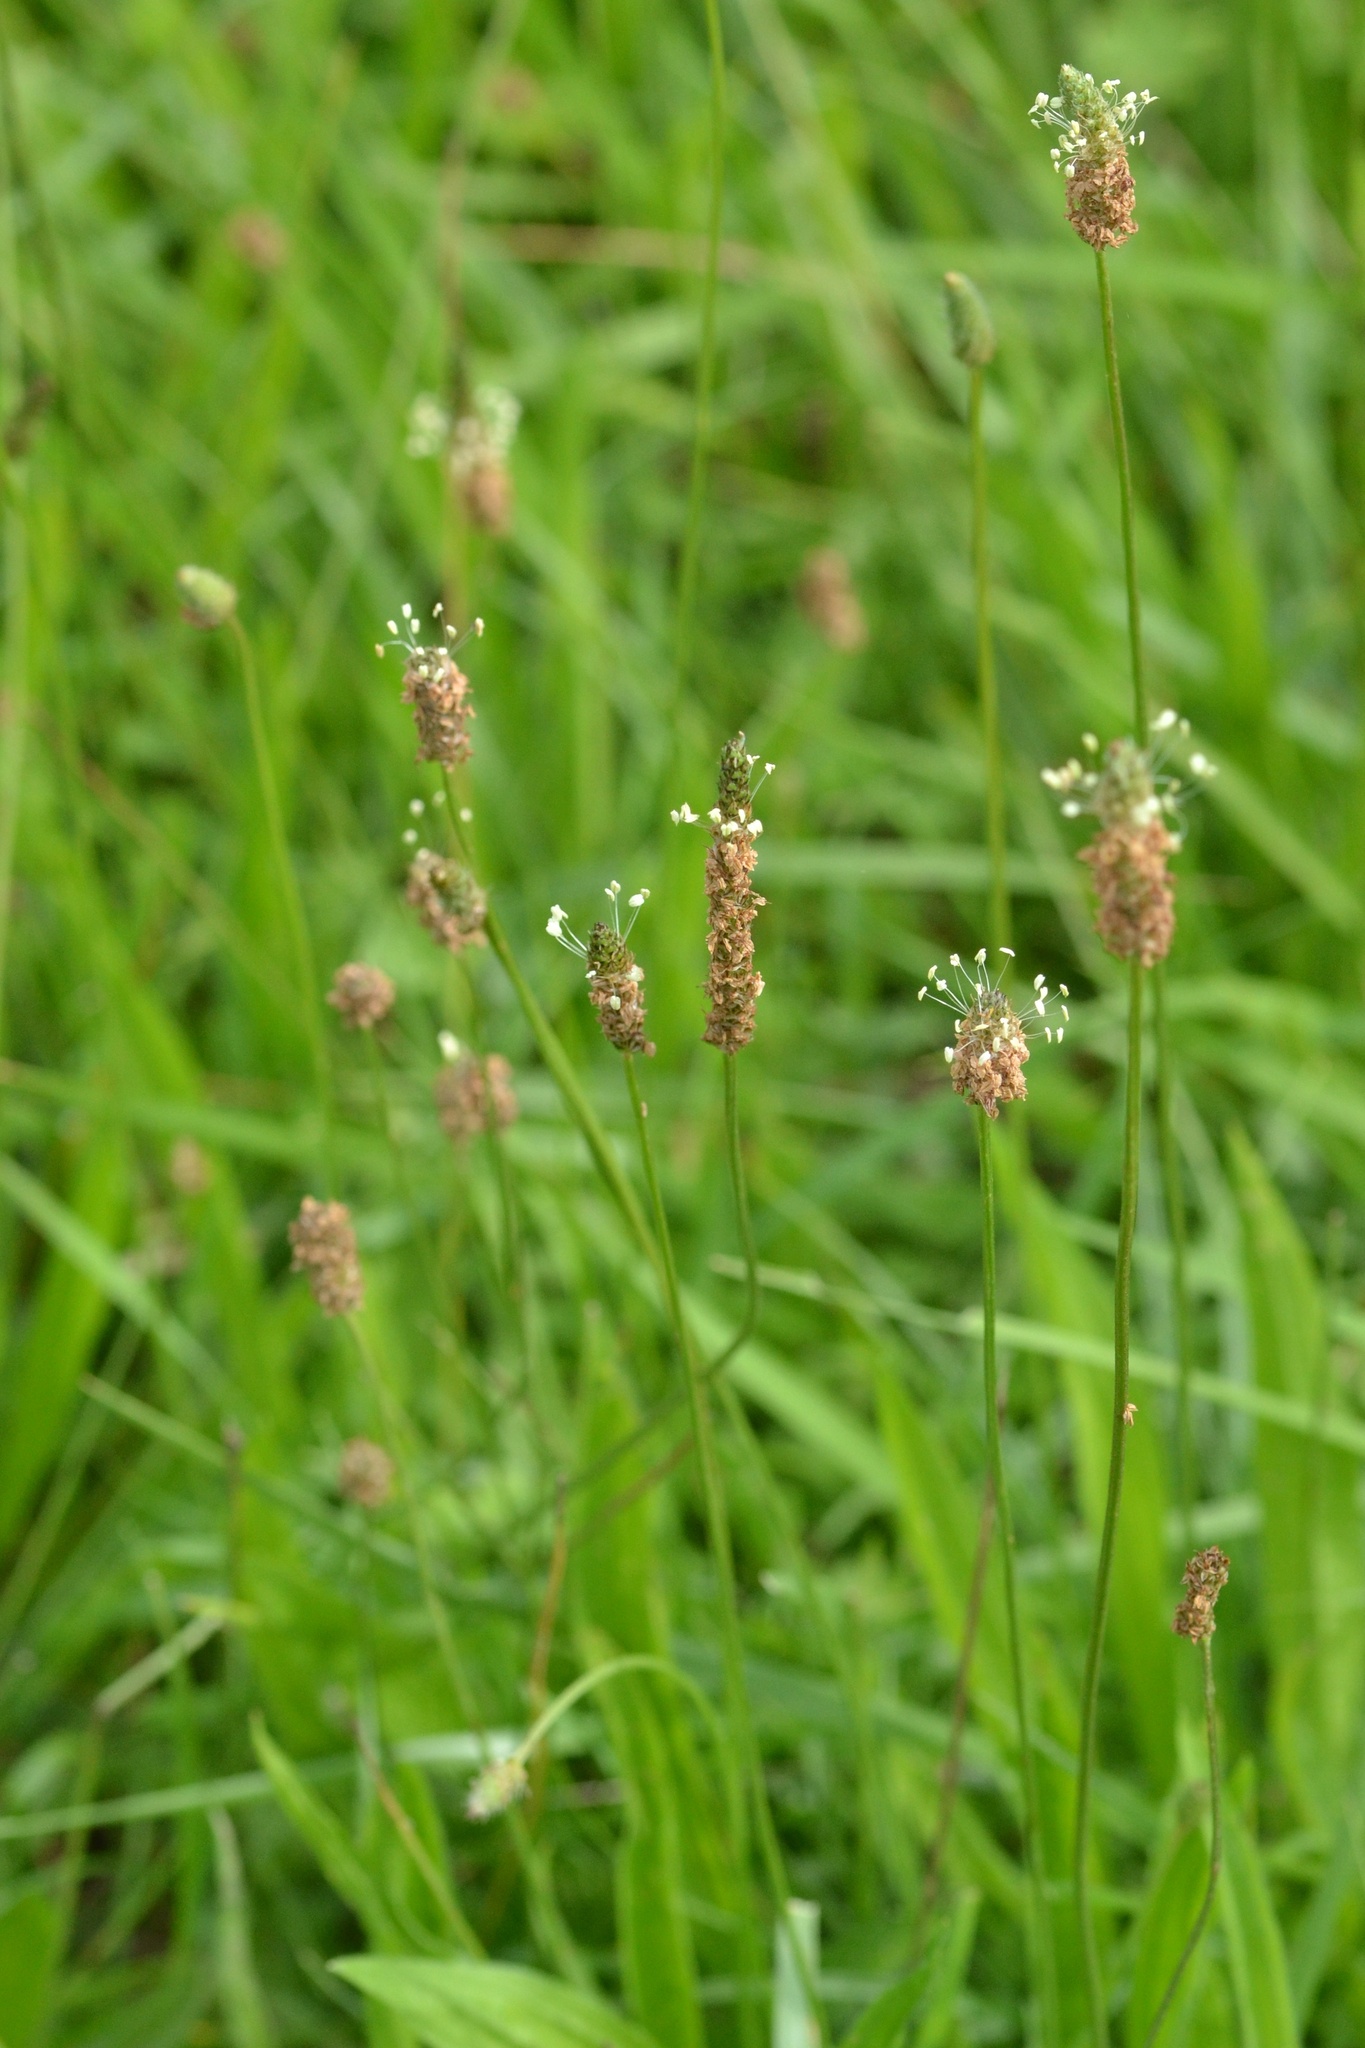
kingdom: Plantae
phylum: Tracheophyta
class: Magnoliopsida
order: Lamiales
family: Plantaginaceae
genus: Plantago
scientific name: Plantago lanceolata
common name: Ribwort plantain
